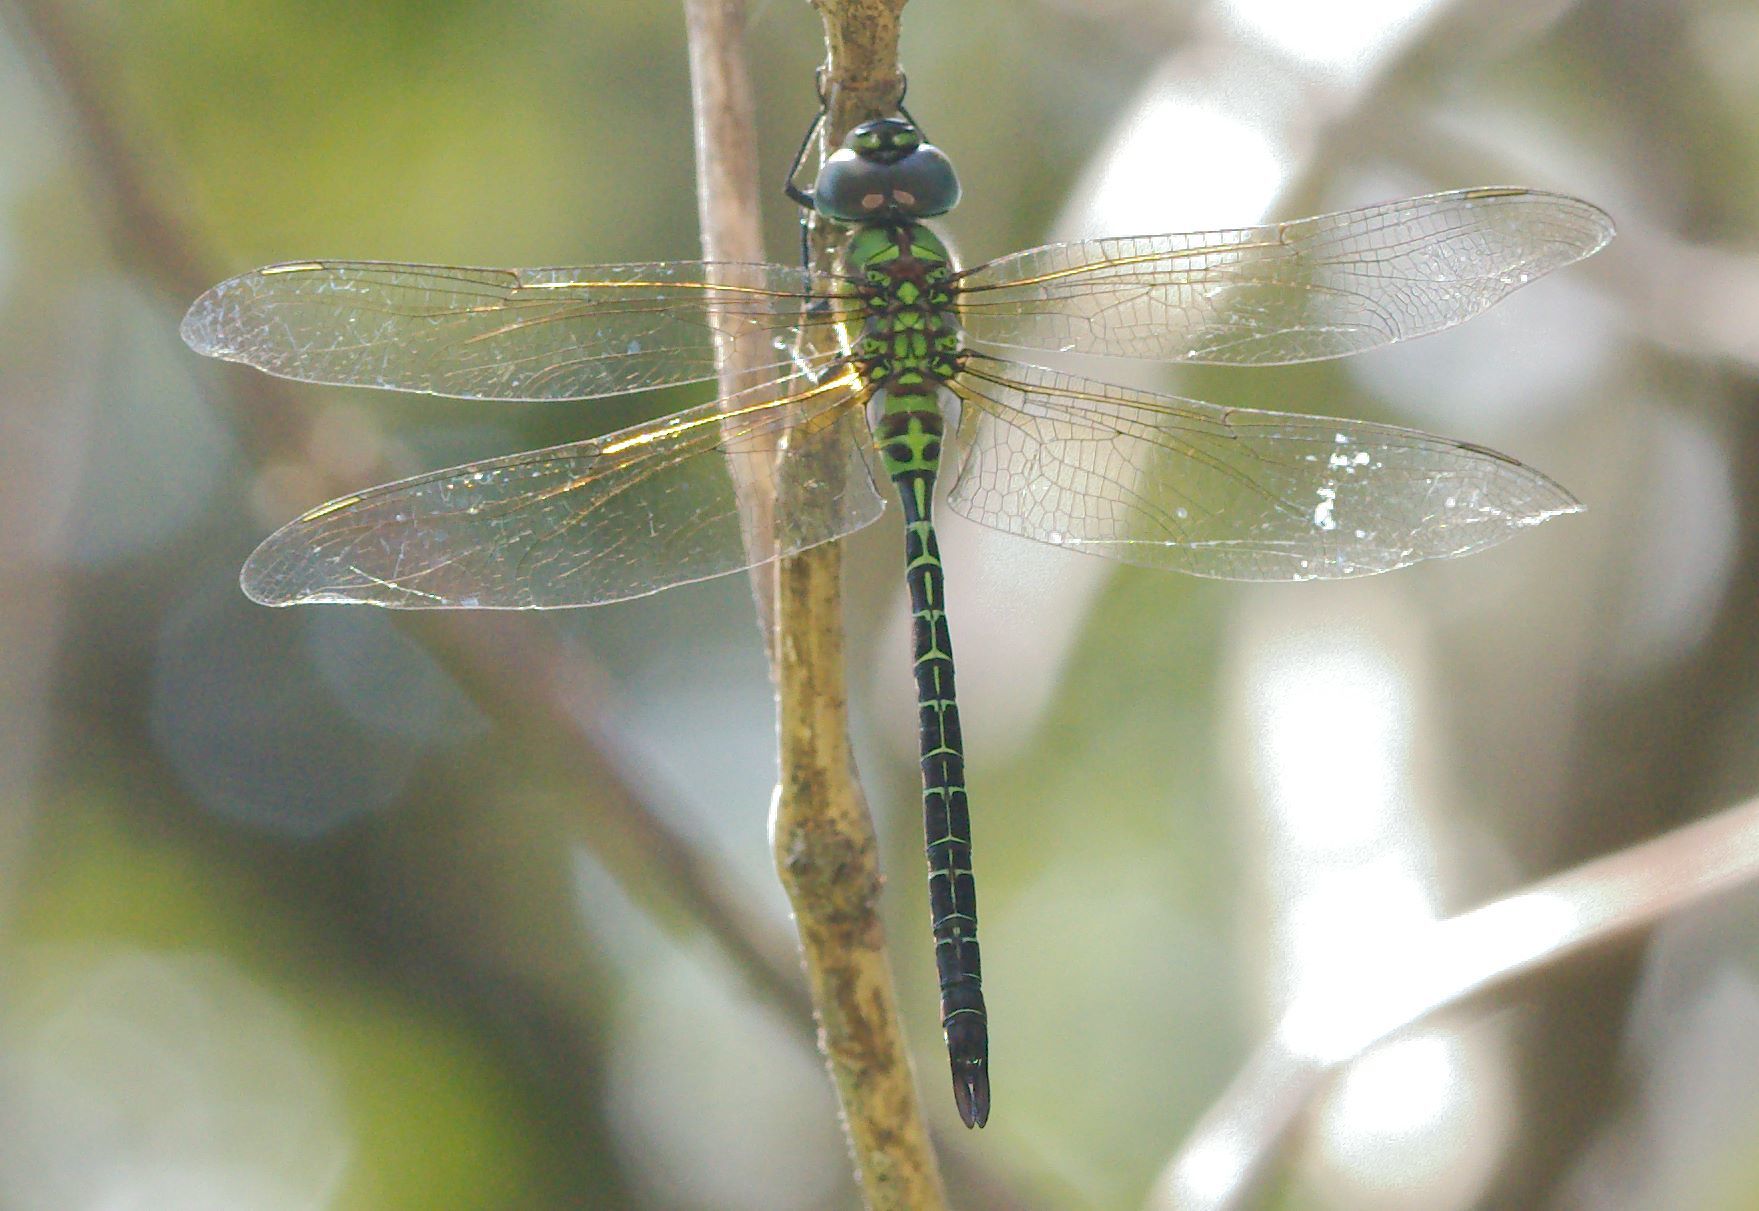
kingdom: Animalia
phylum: Arthropoda
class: Insecta
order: Odonata
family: Aeshnidae
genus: Coryphaeschna
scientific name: Coryphaeschna adnexa
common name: Blue-faced darner
